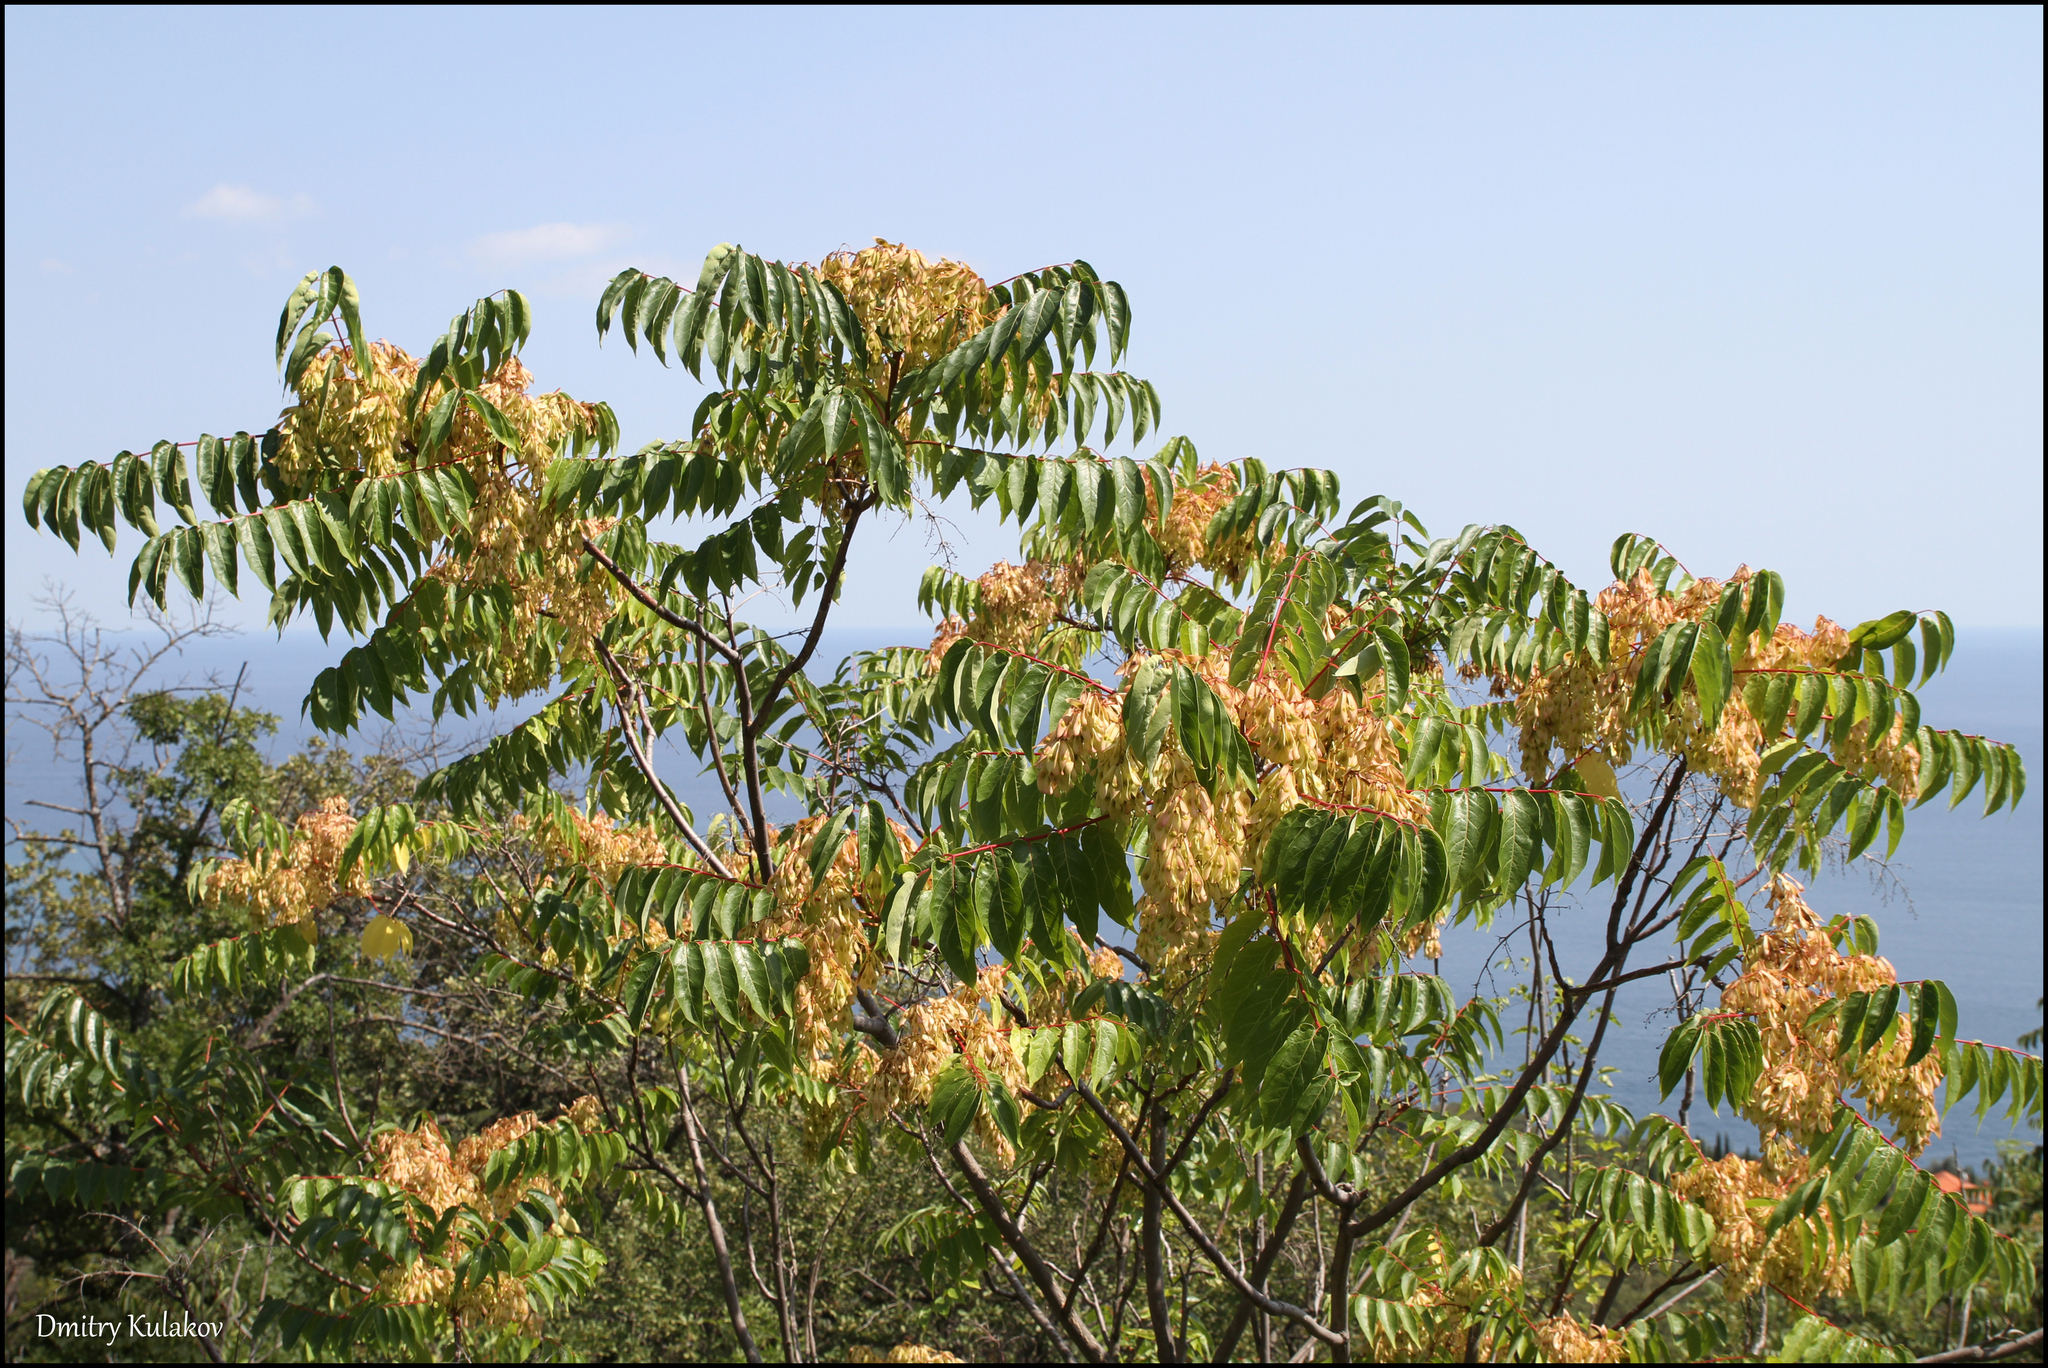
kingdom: Plantae
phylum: Tracheophyta
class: Magnoliopsida
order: Sapindales
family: Simaroubaceae
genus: Ailanthus
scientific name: Ailanthus altissima
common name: Tree-of-heaven
